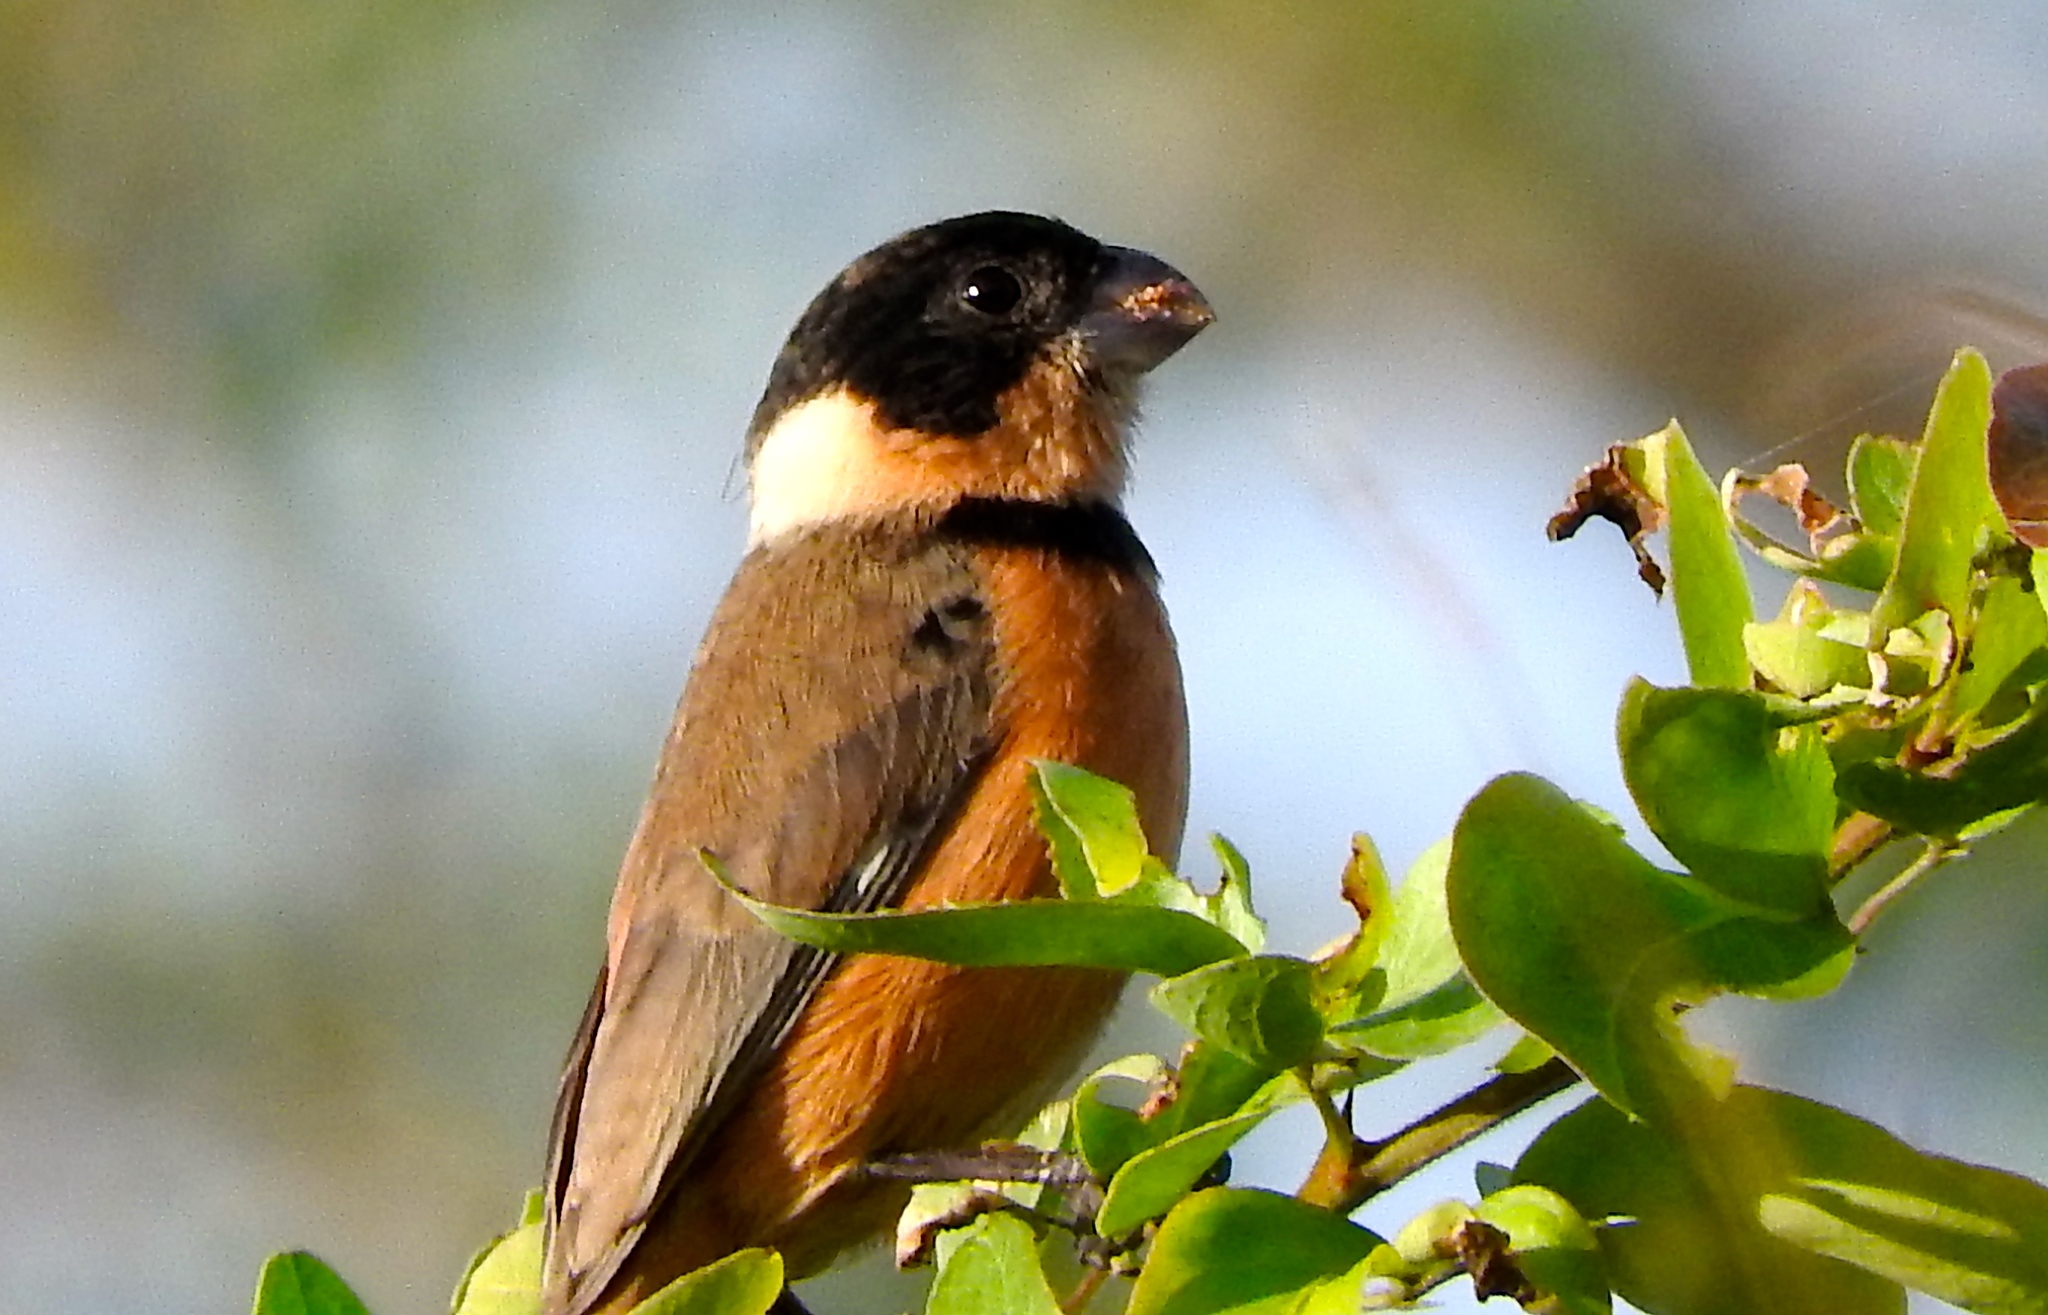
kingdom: Animalia
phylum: Chordata
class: Aves
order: Passeriformes
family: Thraupidae
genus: Sporophila
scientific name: Sporophila torqueola
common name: White-collared seedeater
